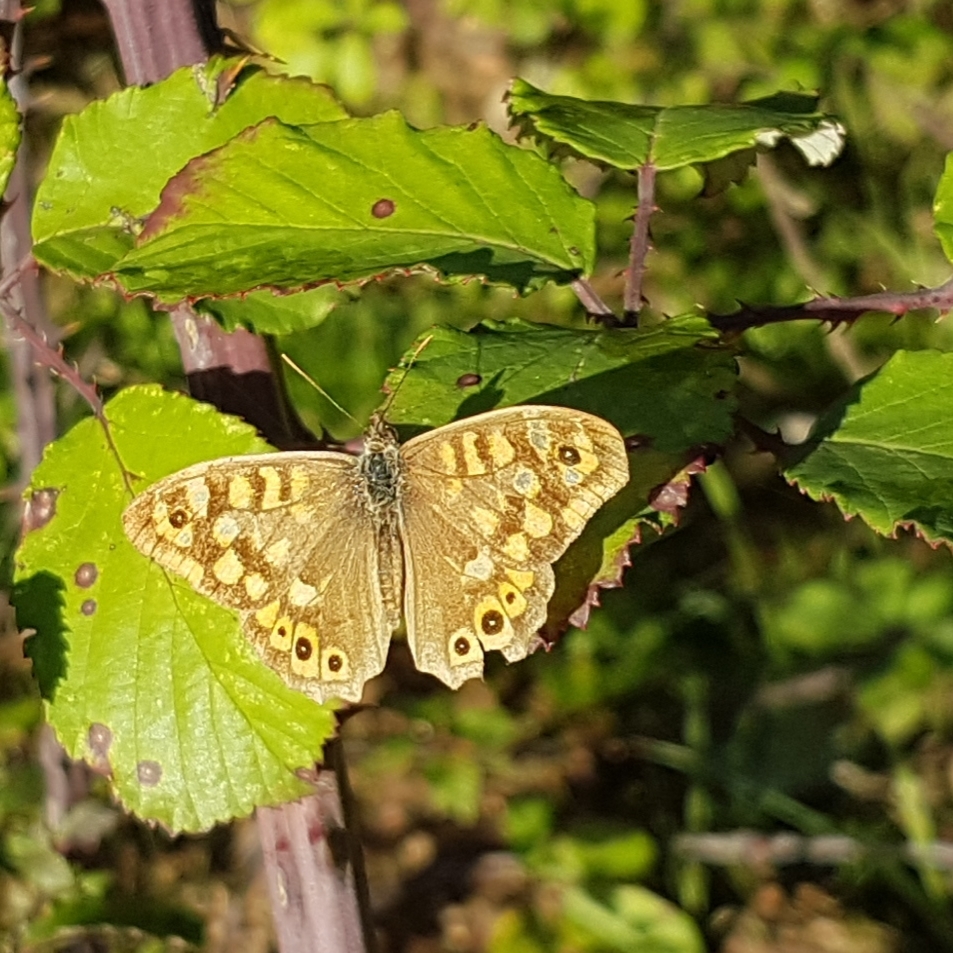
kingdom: Animalia
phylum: Arthropoda
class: Insecta
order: Lepidoptera
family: Nymphalidae
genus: Pararge
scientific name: Pararge aegeria
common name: Speckled wood
